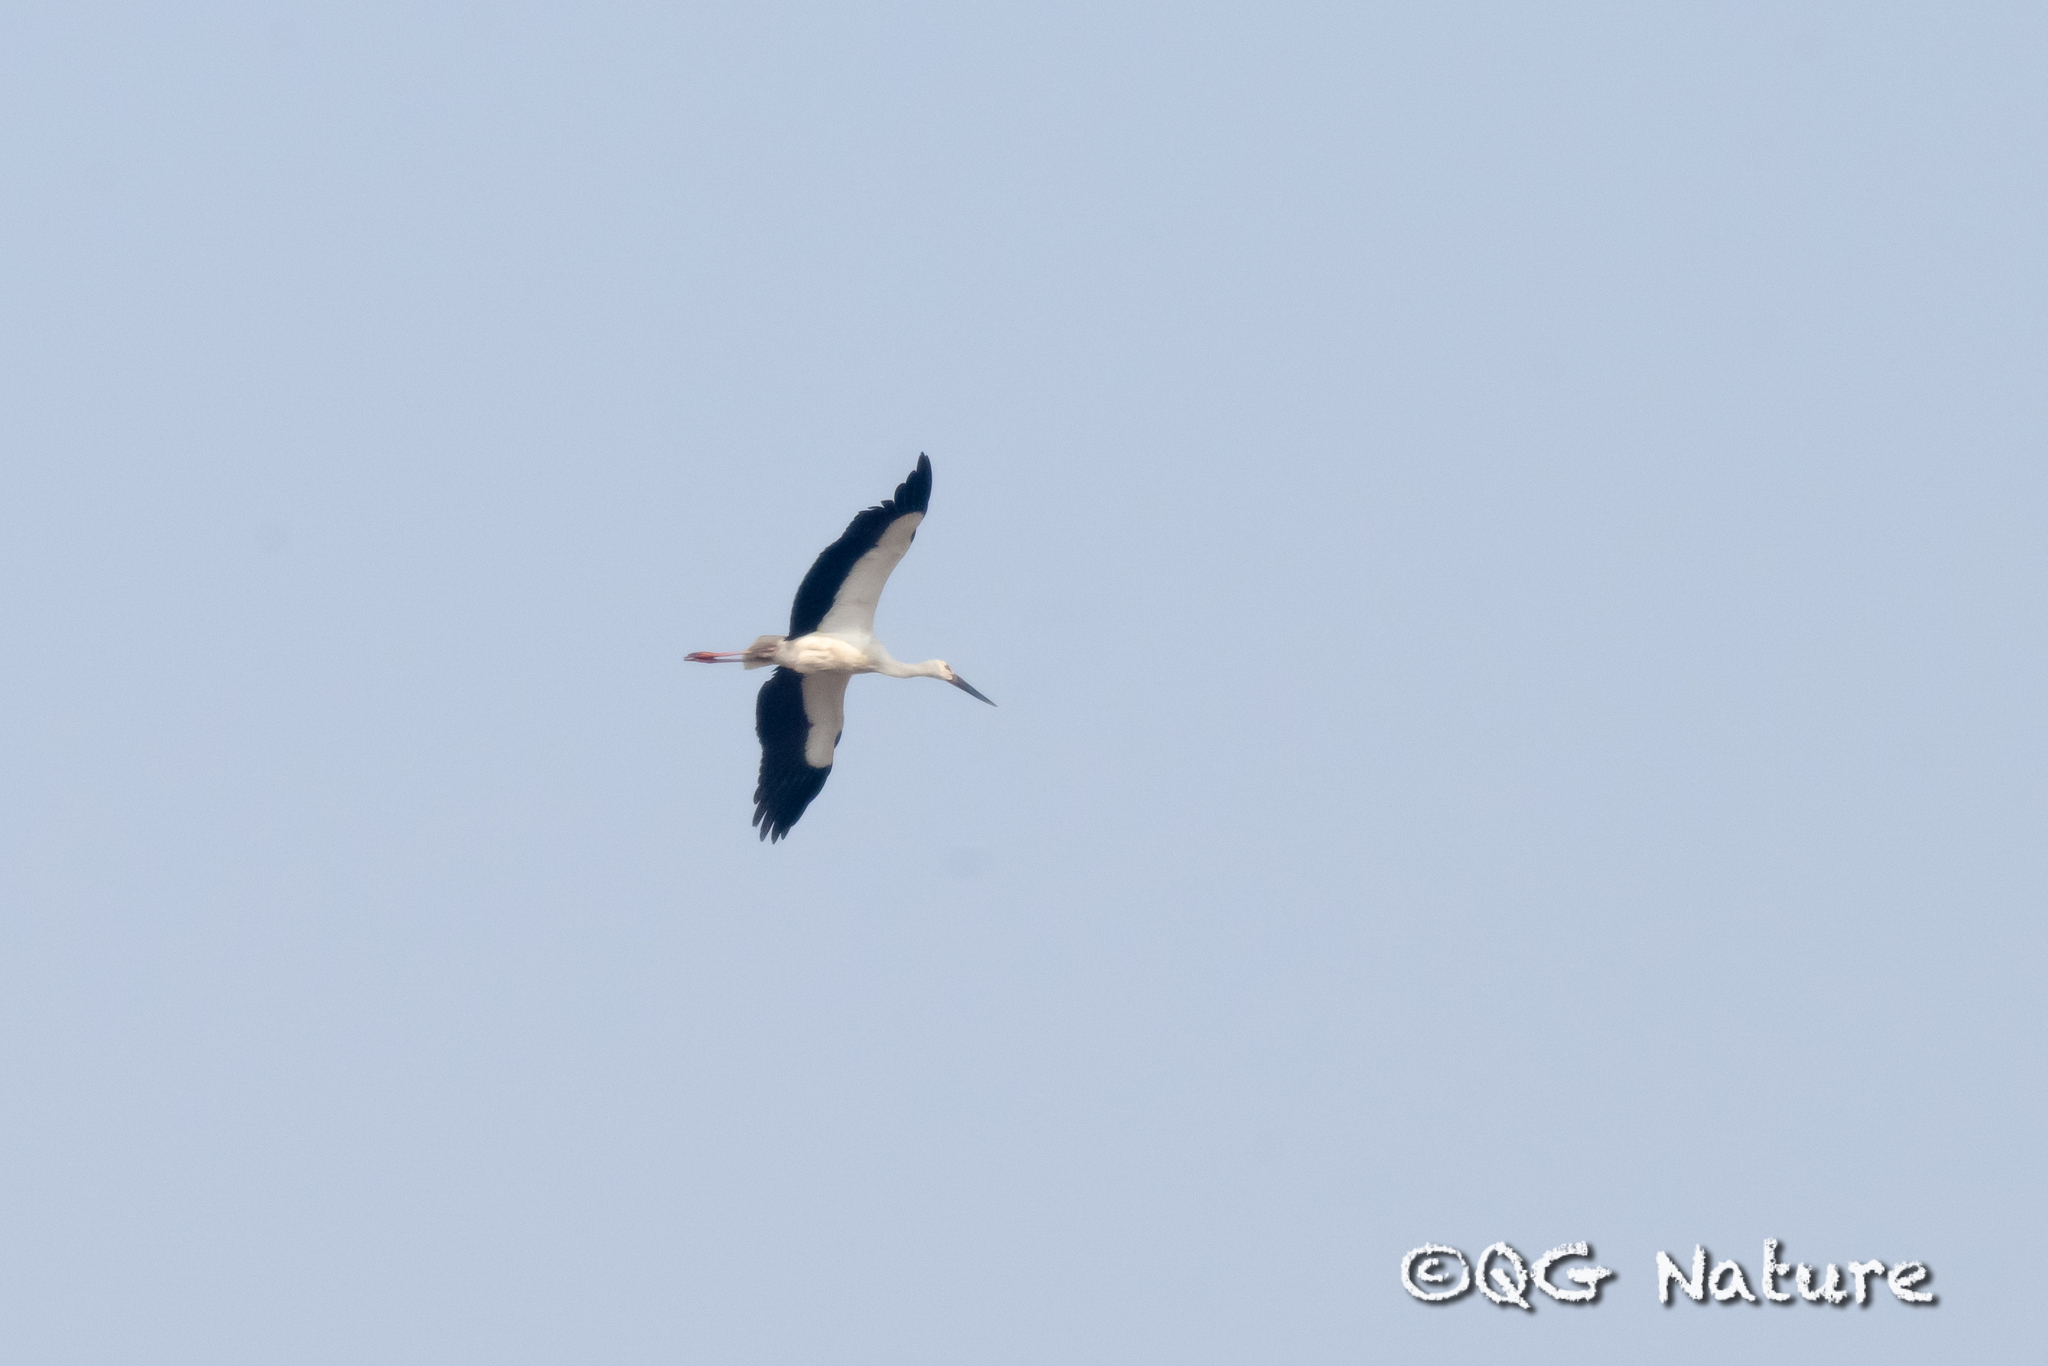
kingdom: Animalia
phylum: Chordata
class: Aves
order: Ciconiiformes
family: Ciconiidae
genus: Ciconia
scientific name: Ciconia boyciana
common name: Oriental stork
